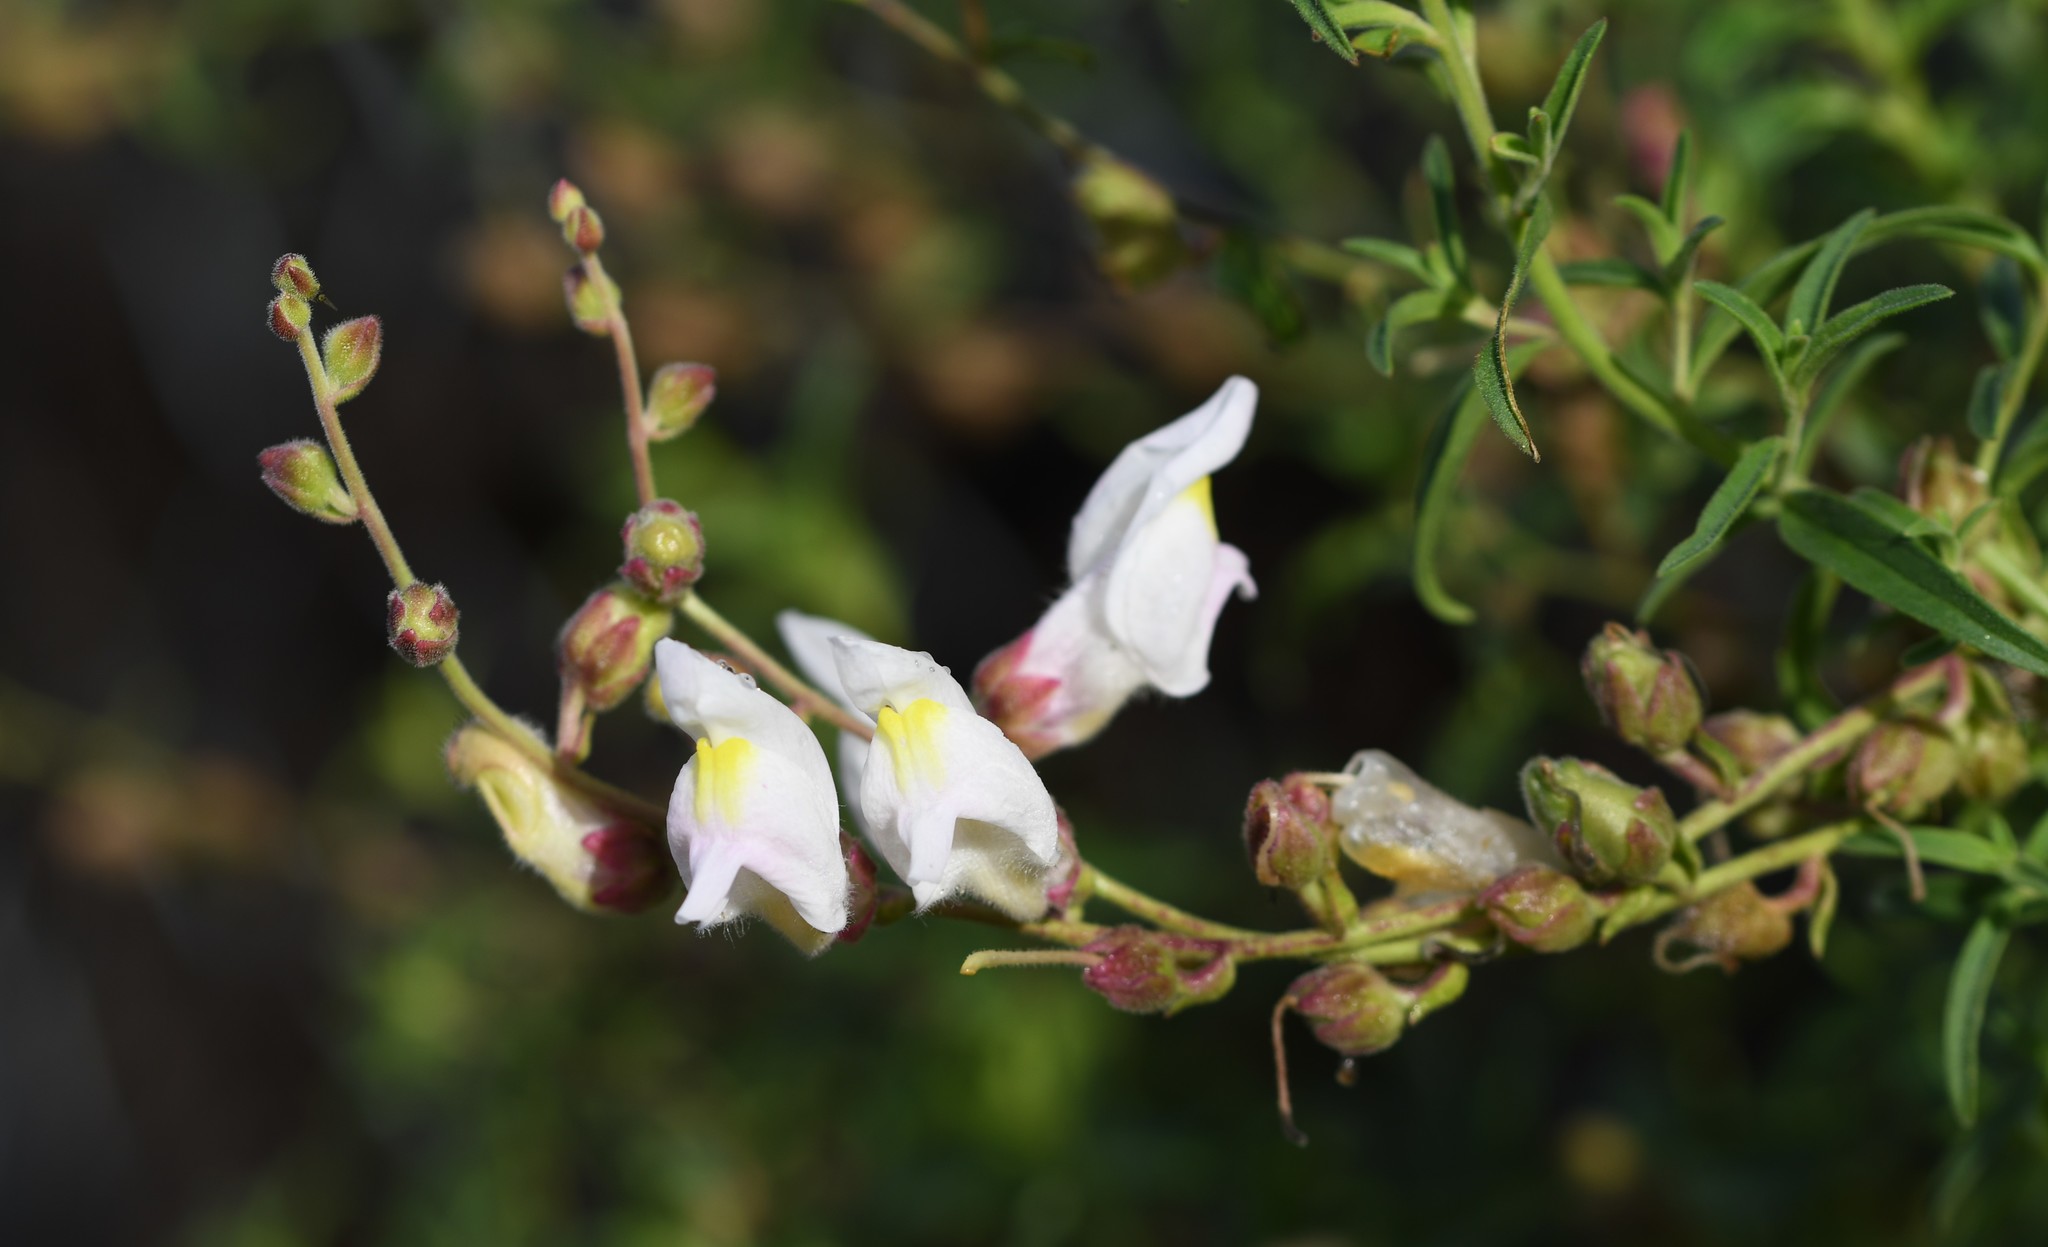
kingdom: Plantae
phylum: Tracheophyta
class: Magnoliopsida
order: Lamiales
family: Plantaginaceae
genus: Antirrhinum
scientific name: Antirrhinum graniticum
